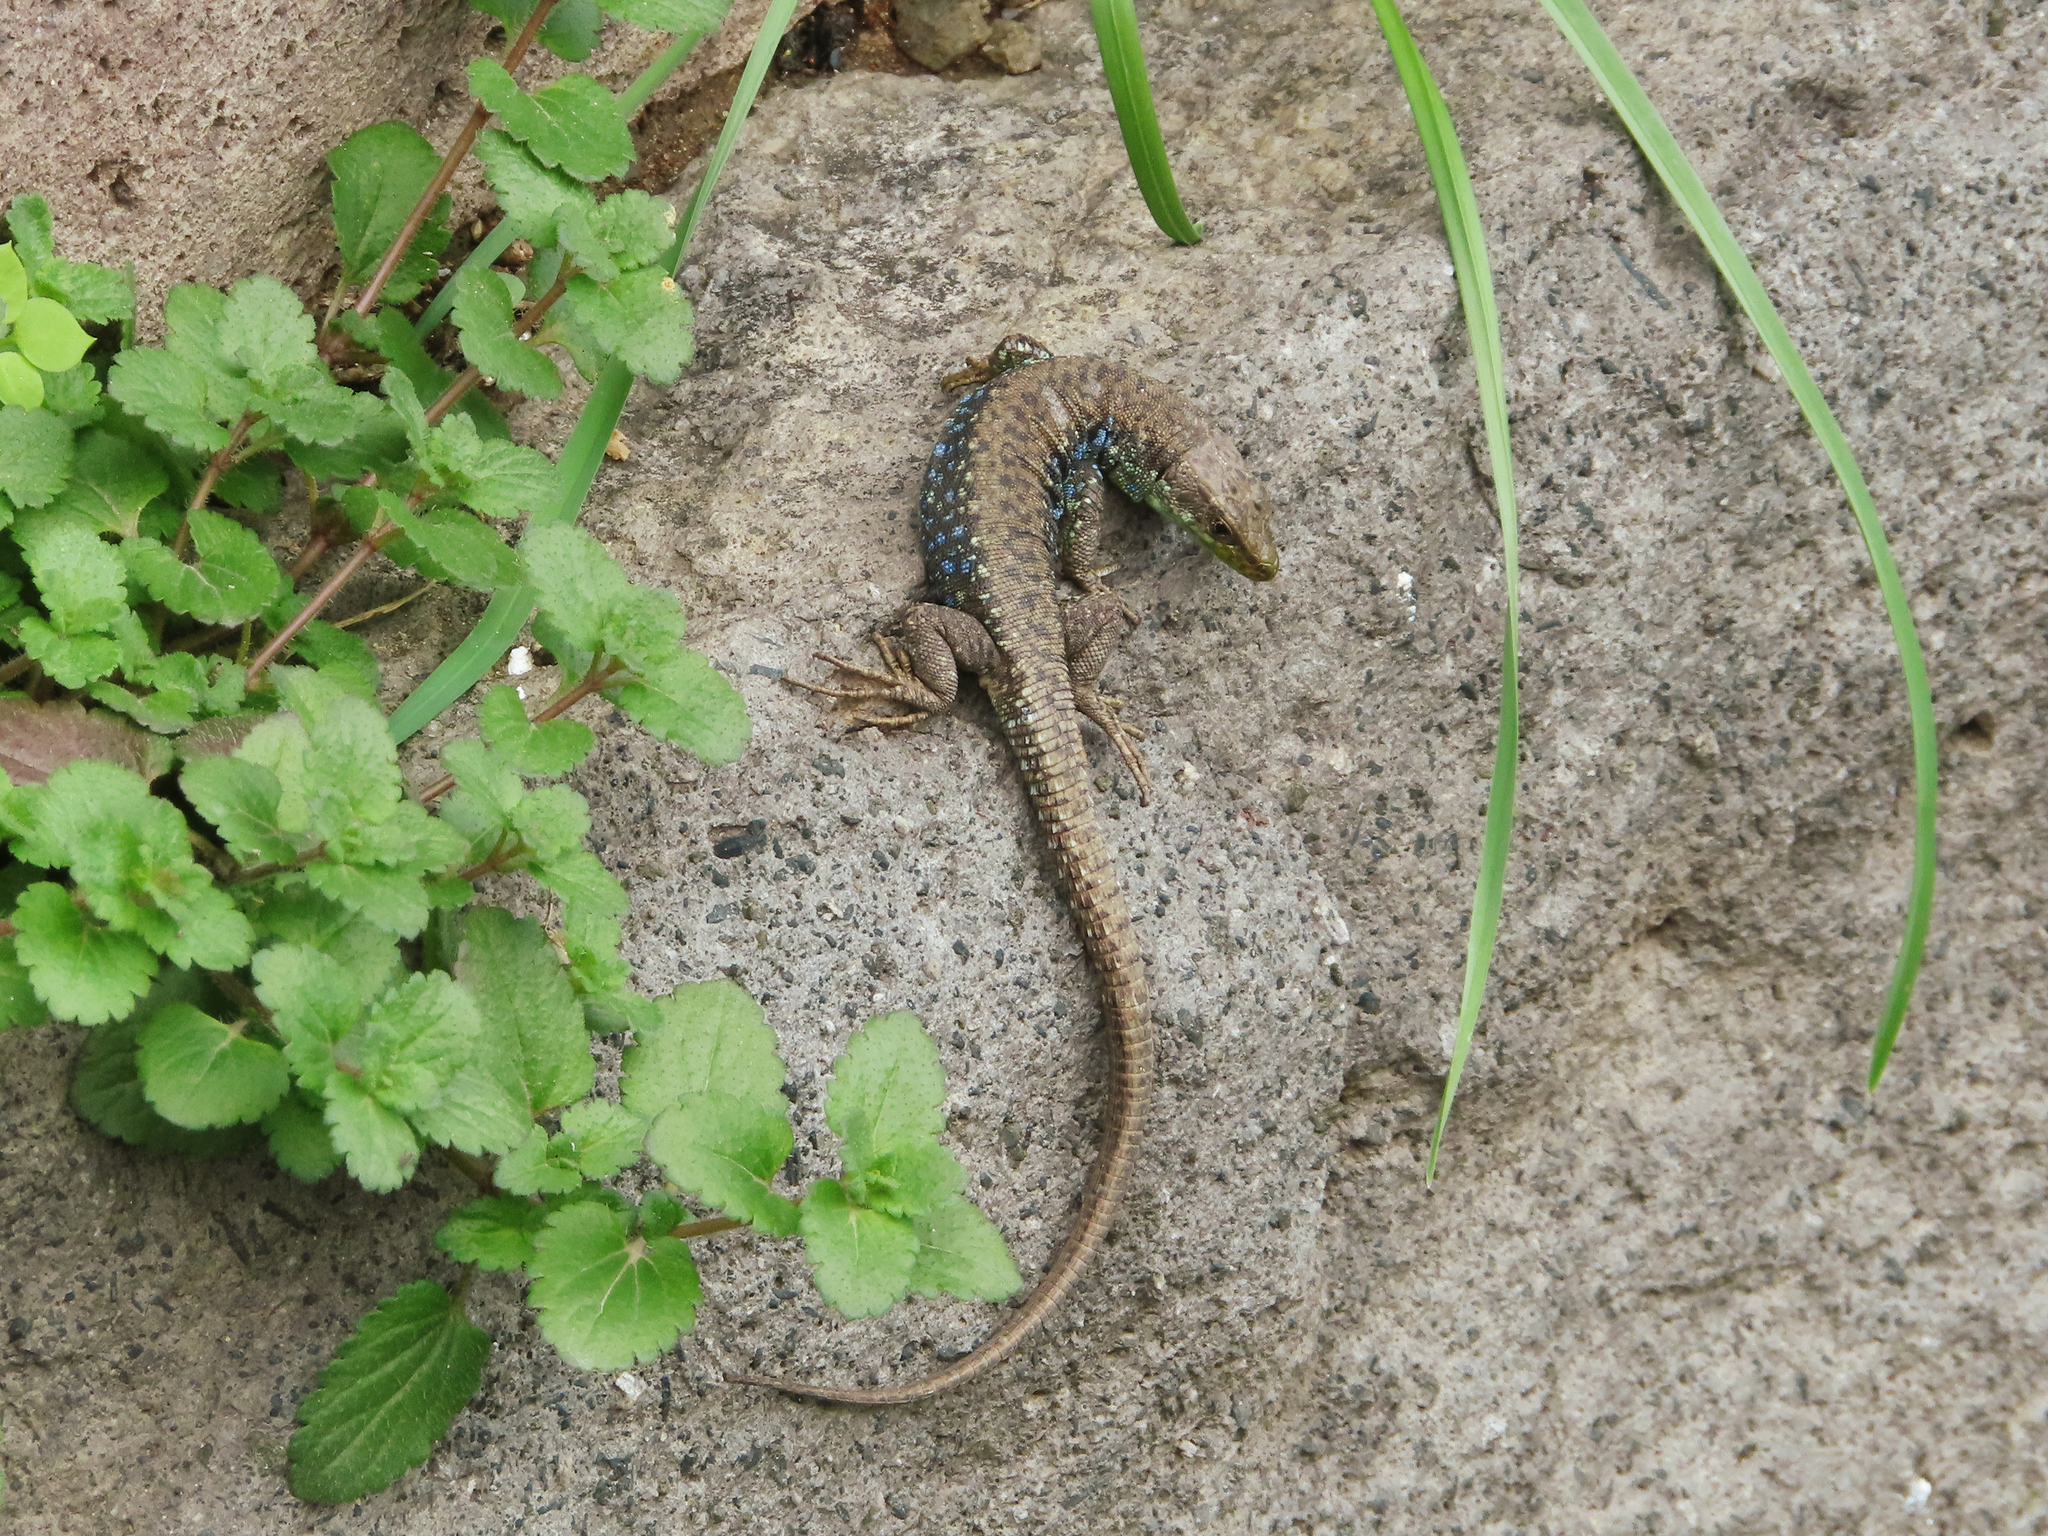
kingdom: Animalia
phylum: Chordata
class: Squamata
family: Lacertidae
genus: Darevskia
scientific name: Darevskia raddei
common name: Radde's lizard
